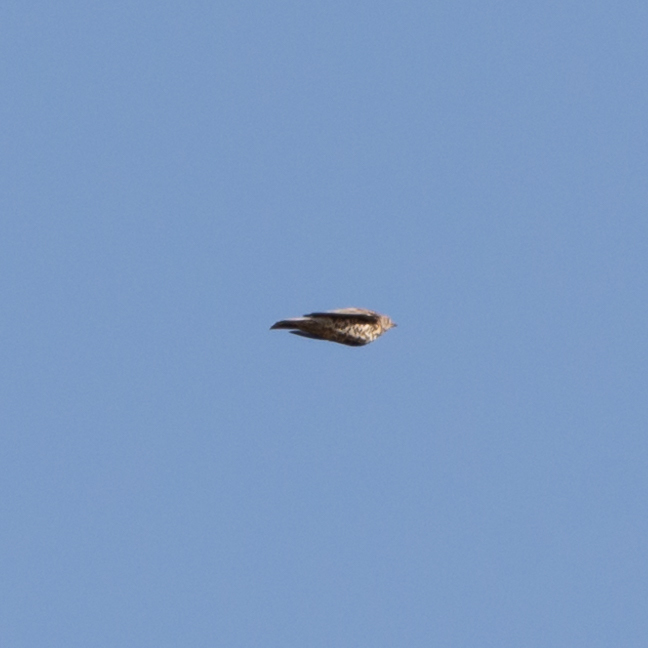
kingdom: Animalia
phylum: Chordata
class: Aves
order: Passeriformes
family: Turdidae
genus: Turdus
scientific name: Turdus viscivorus
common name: Mistle thrush
